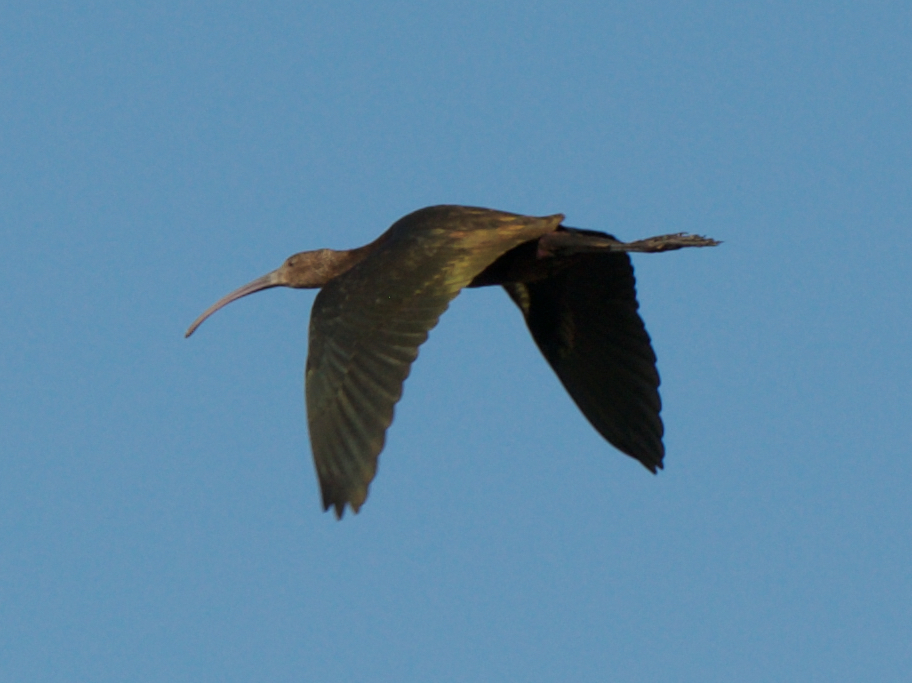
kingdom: Animalia
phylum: Chordata
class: Aves
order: Pelecaniformes
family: Threskiornithidae
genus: Plegadis
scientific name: Plegadis chihi
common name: White-faced ibis
